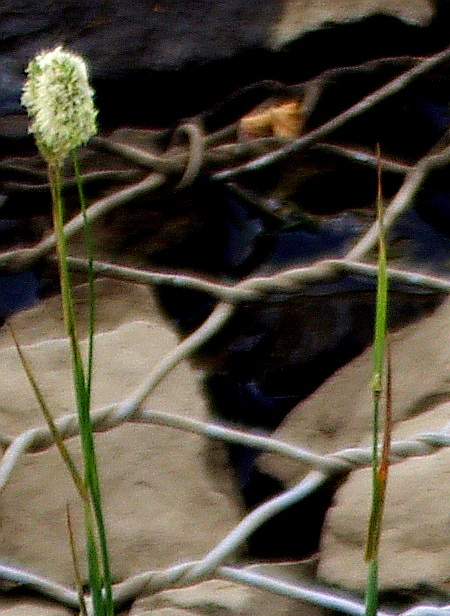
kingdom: Plantae
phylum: Tracheophyta
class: Liliopsida
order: Poales
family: Poaceae
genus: Phleum
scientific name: Phleum pratense
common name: Timothy grass
